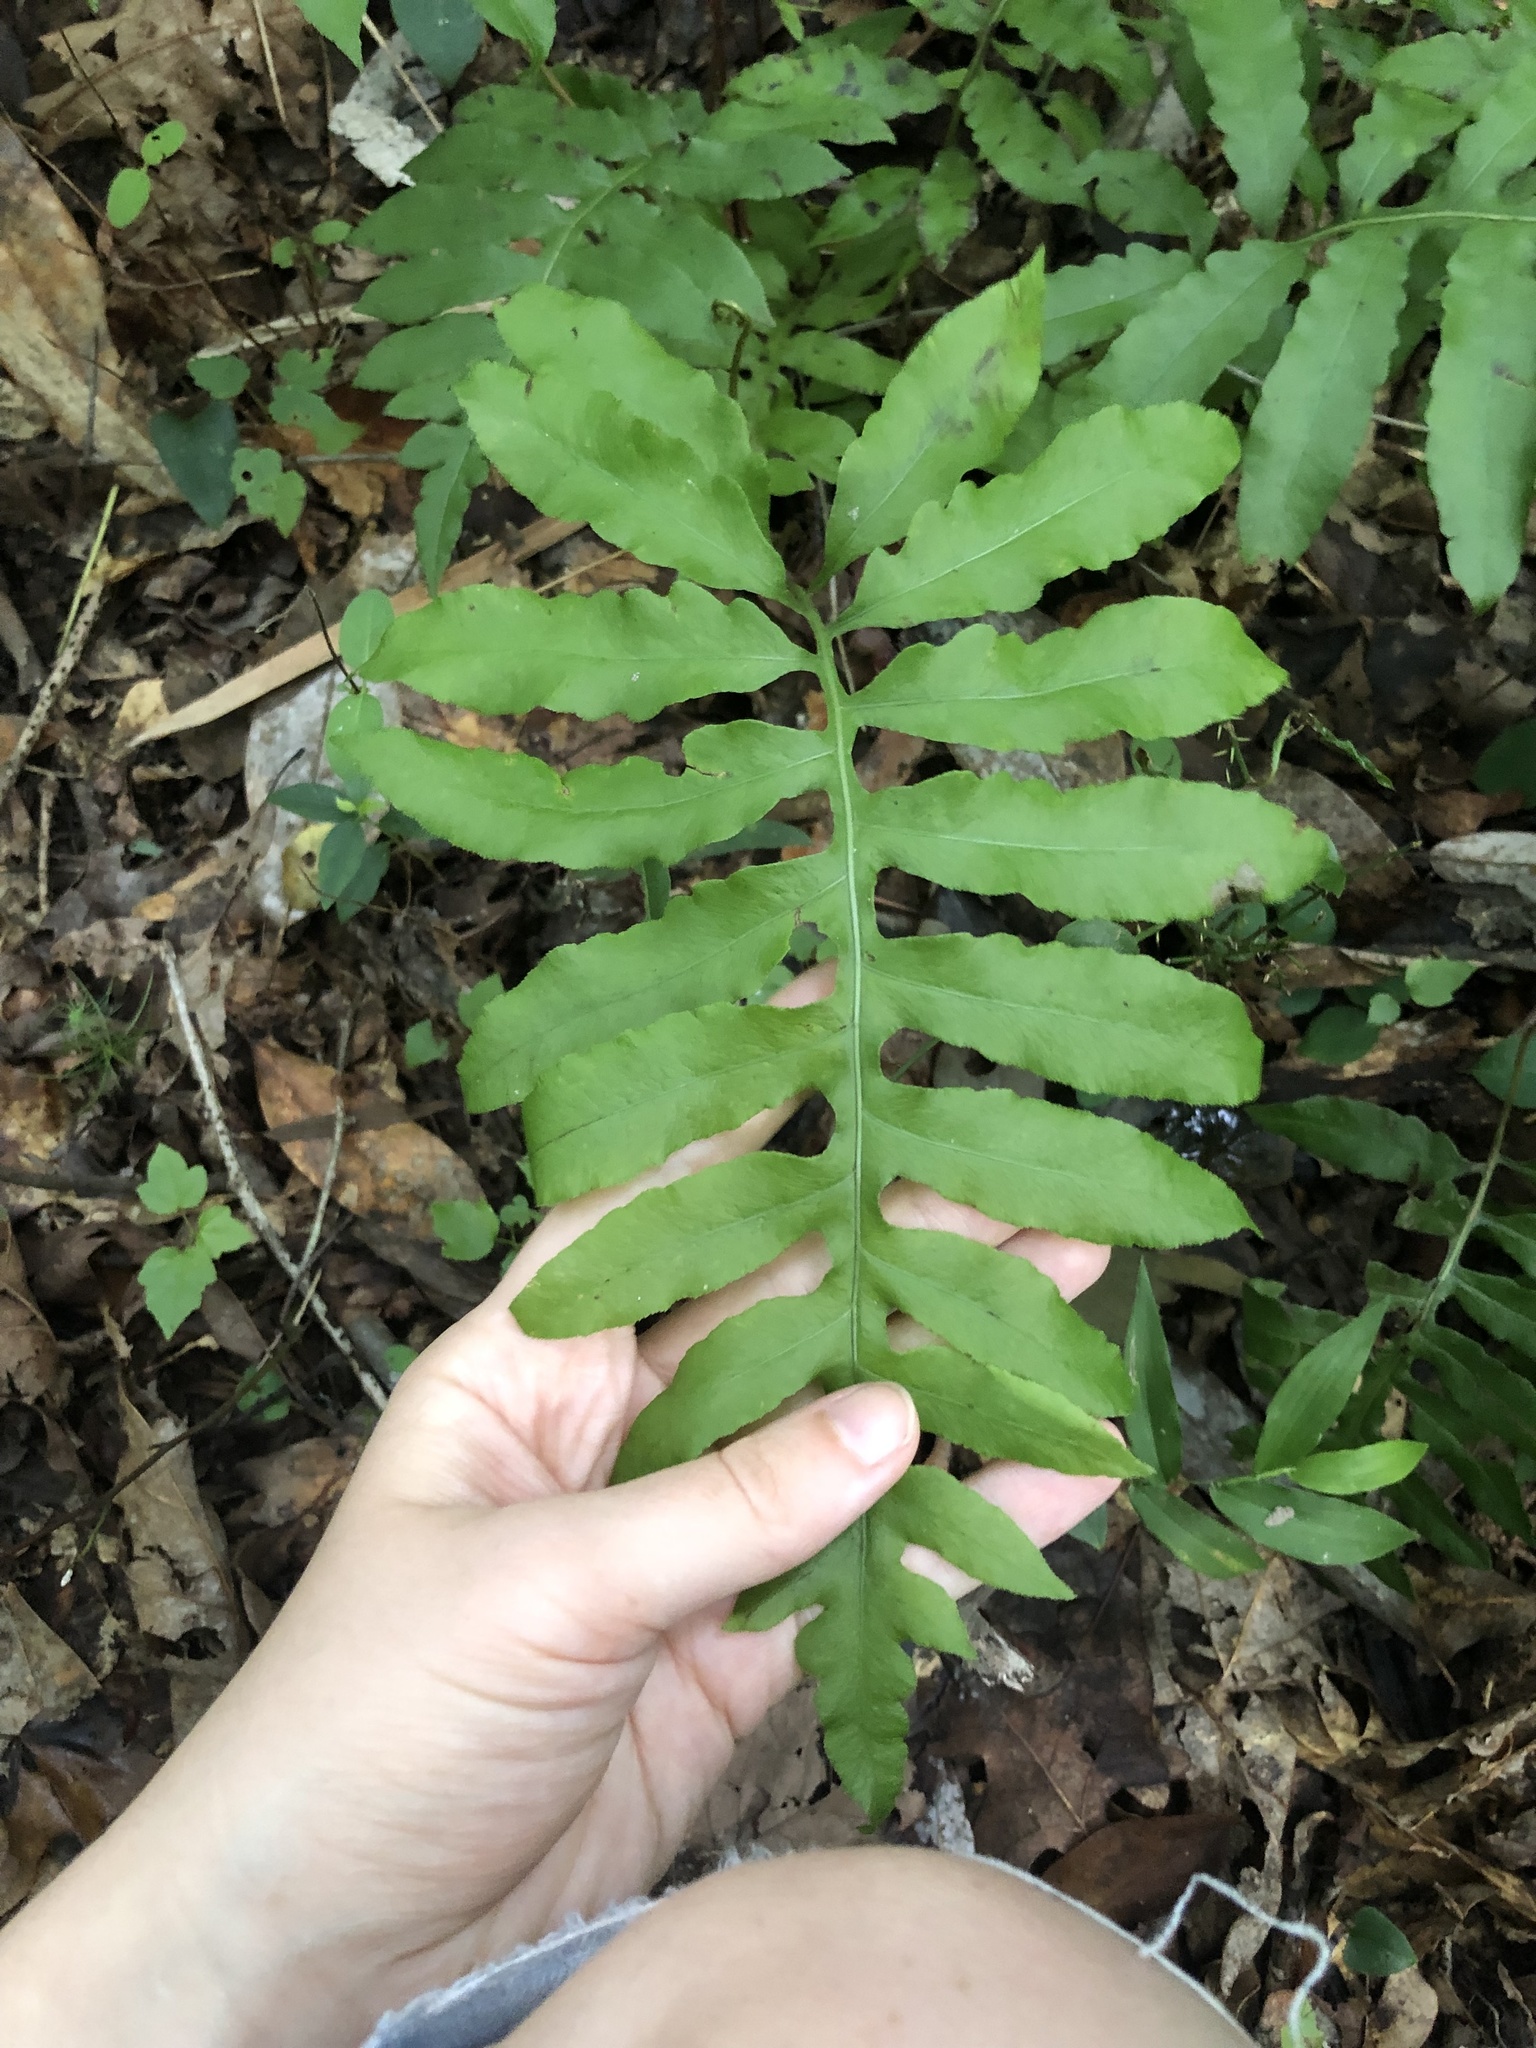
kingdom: Plantae
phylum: Tracheophyta
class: Polypodiopsida
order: Polypodiales
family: Blechnaceae
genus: Lorinseria
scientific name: Lorinseria areolata
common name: Dwarf chain fern
